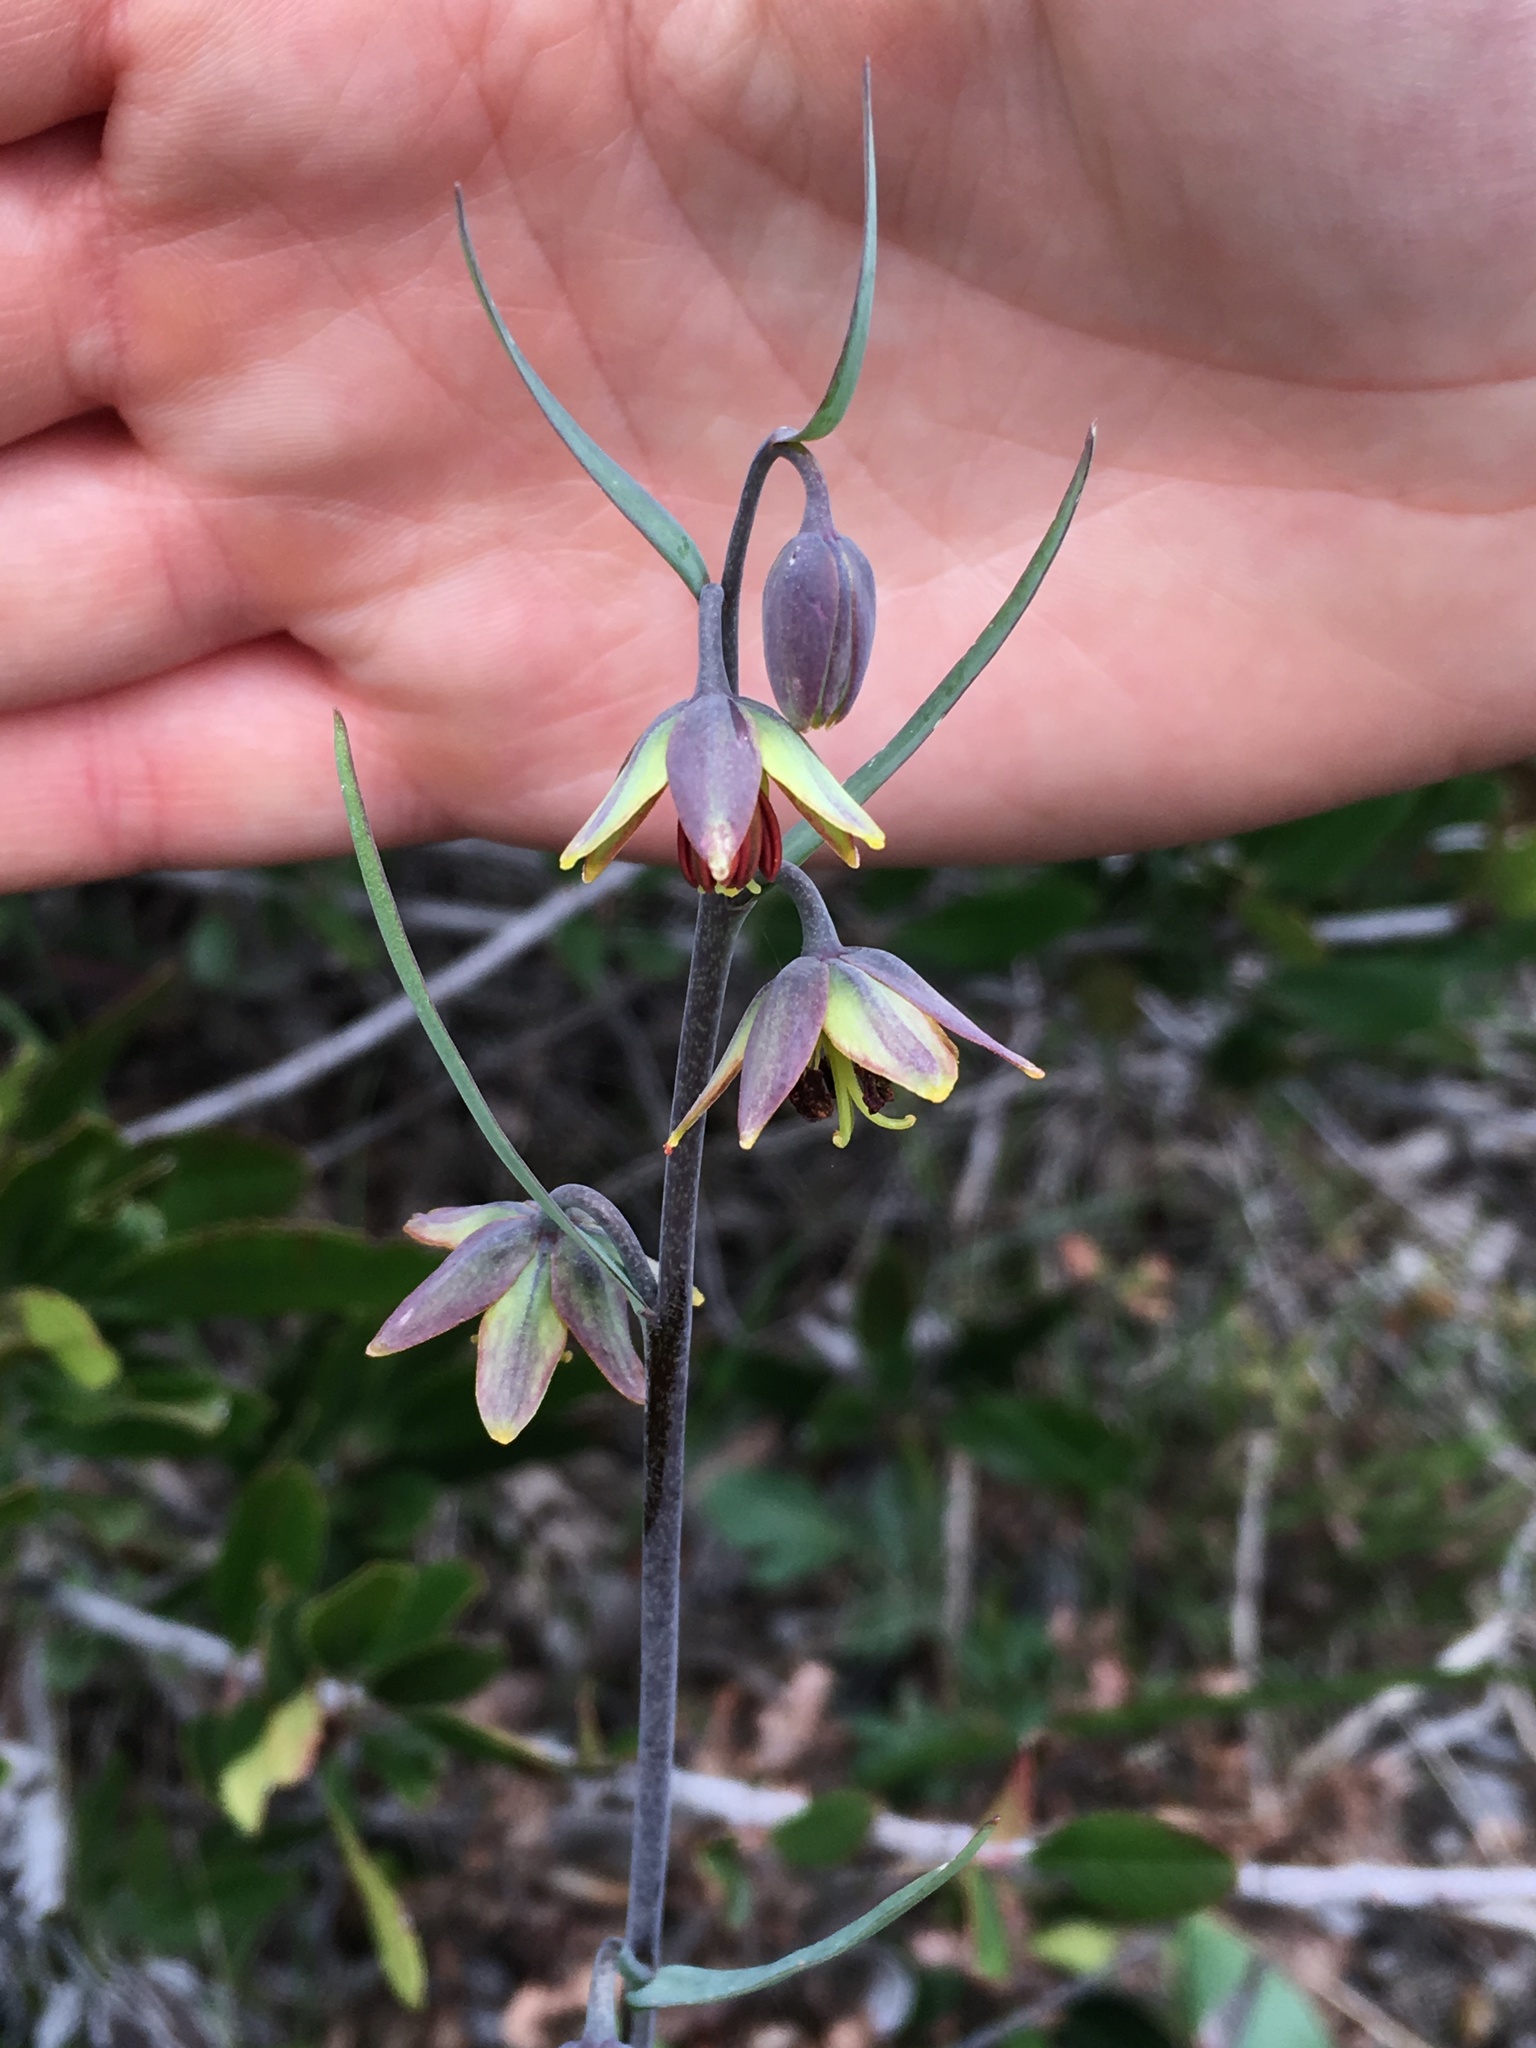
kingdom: Plantae
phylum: Tracheophyta
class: Liliopsida
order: Liliales
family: Liliaceae
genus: Fritillaria
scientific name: Fritillaria micrantha
